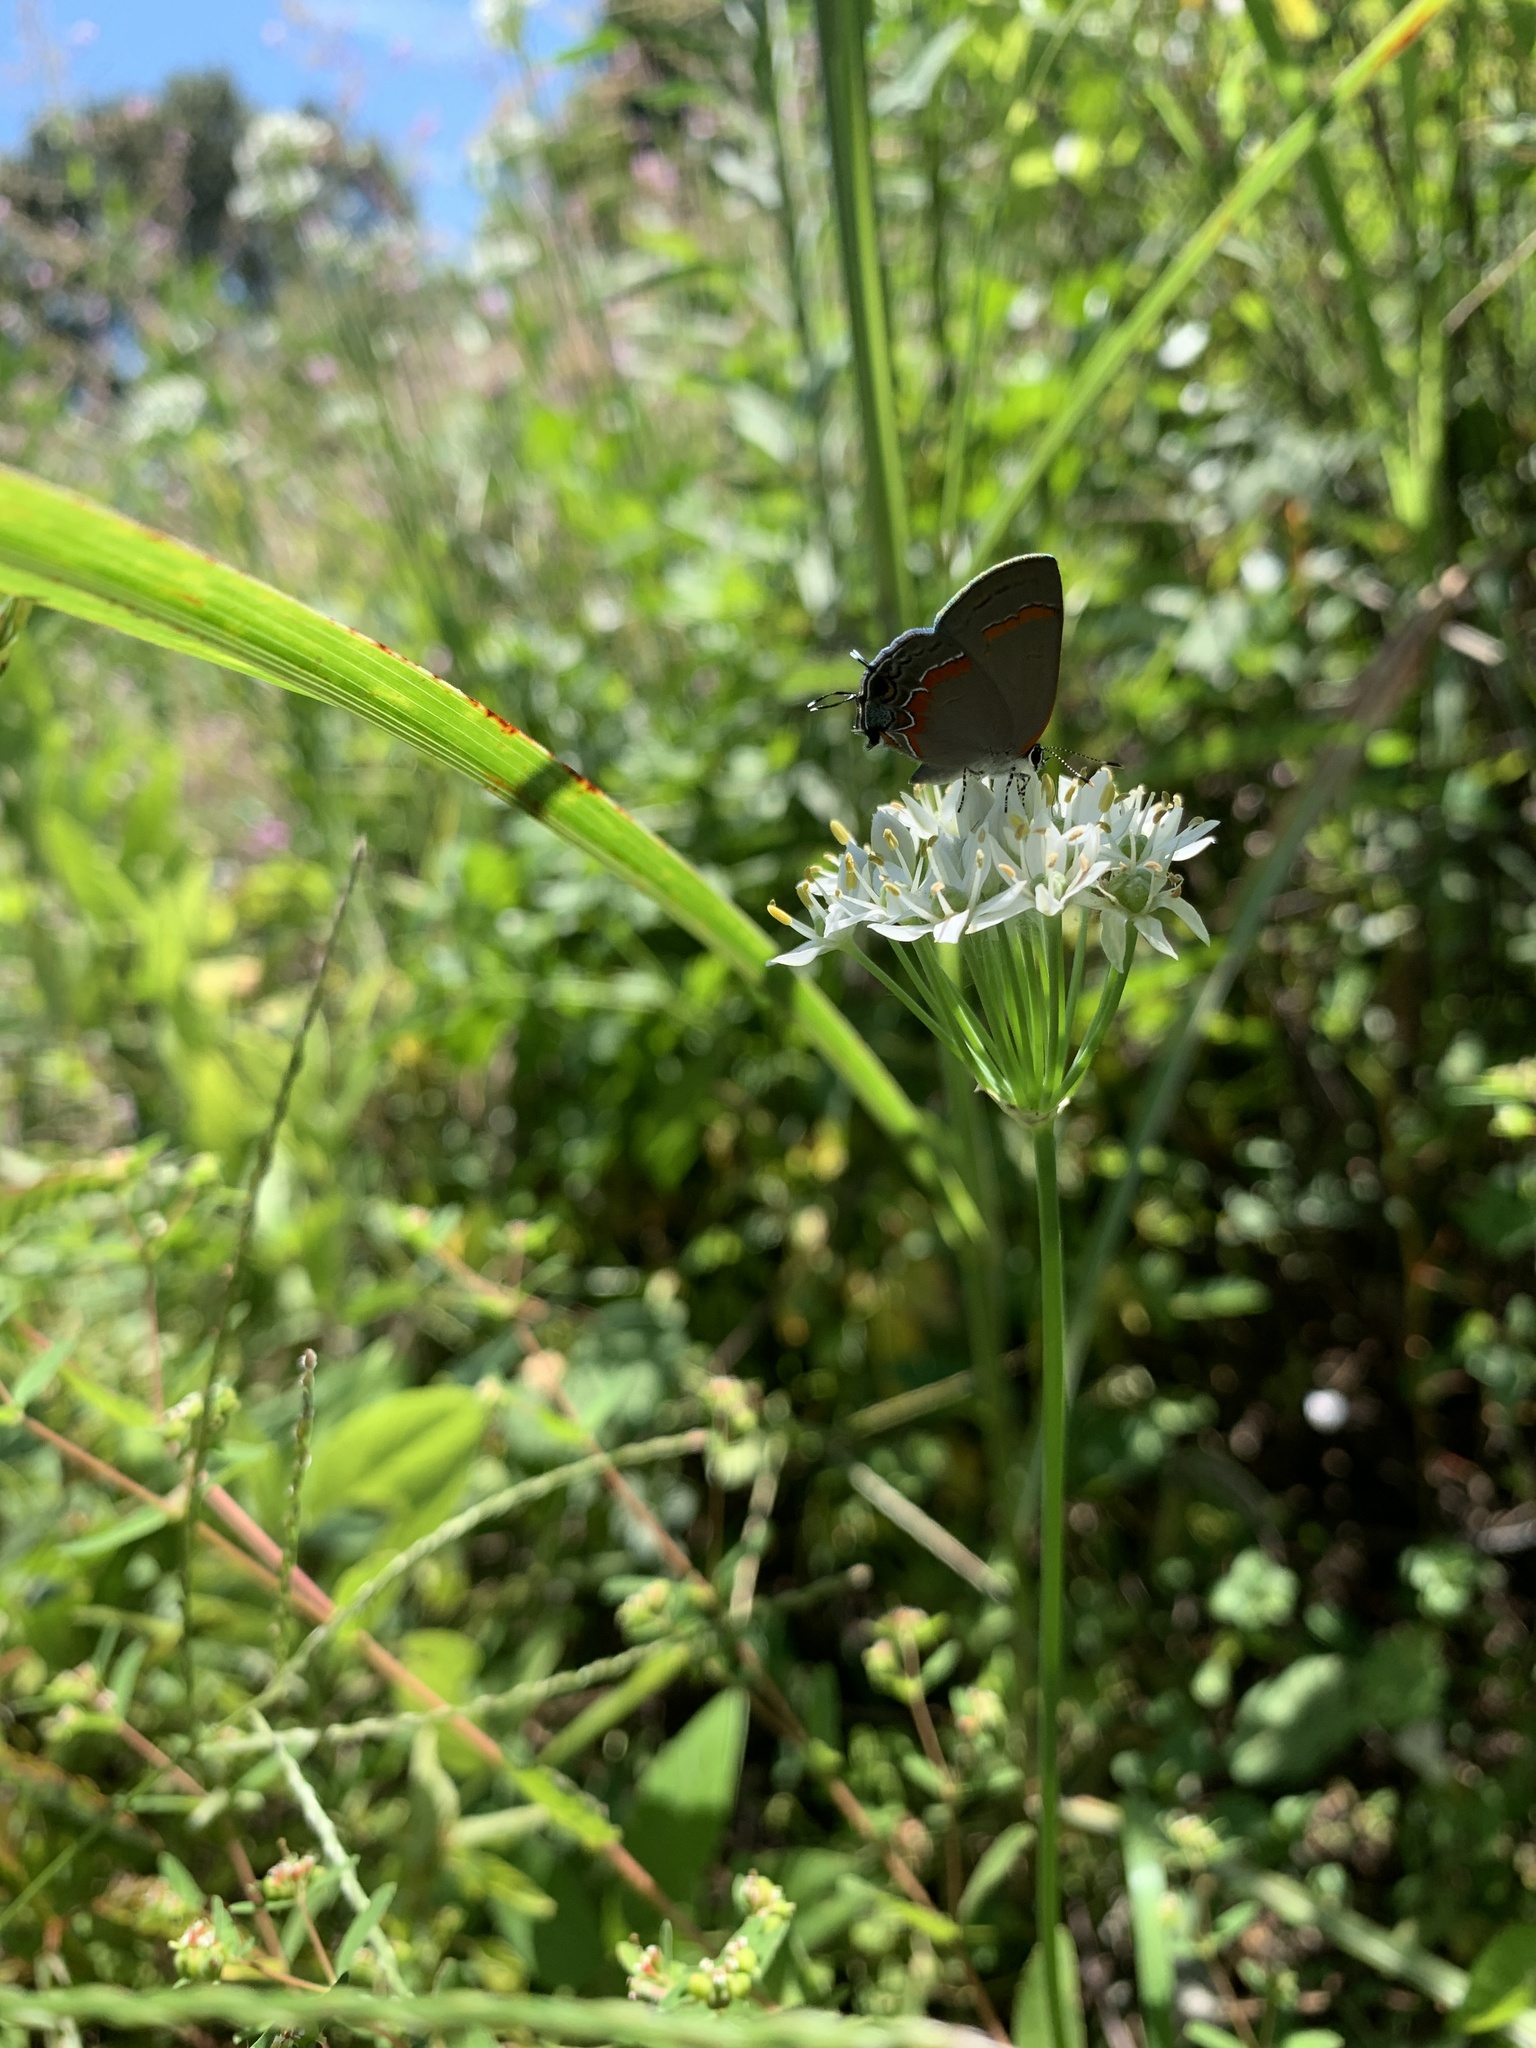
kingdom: Animalia
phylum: Arthropoda
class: Insecta
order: Lepidoptera
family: Lycaenidae
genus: Calycopis
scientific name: Calycopis cecrops
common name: Red-banded hairstreak
